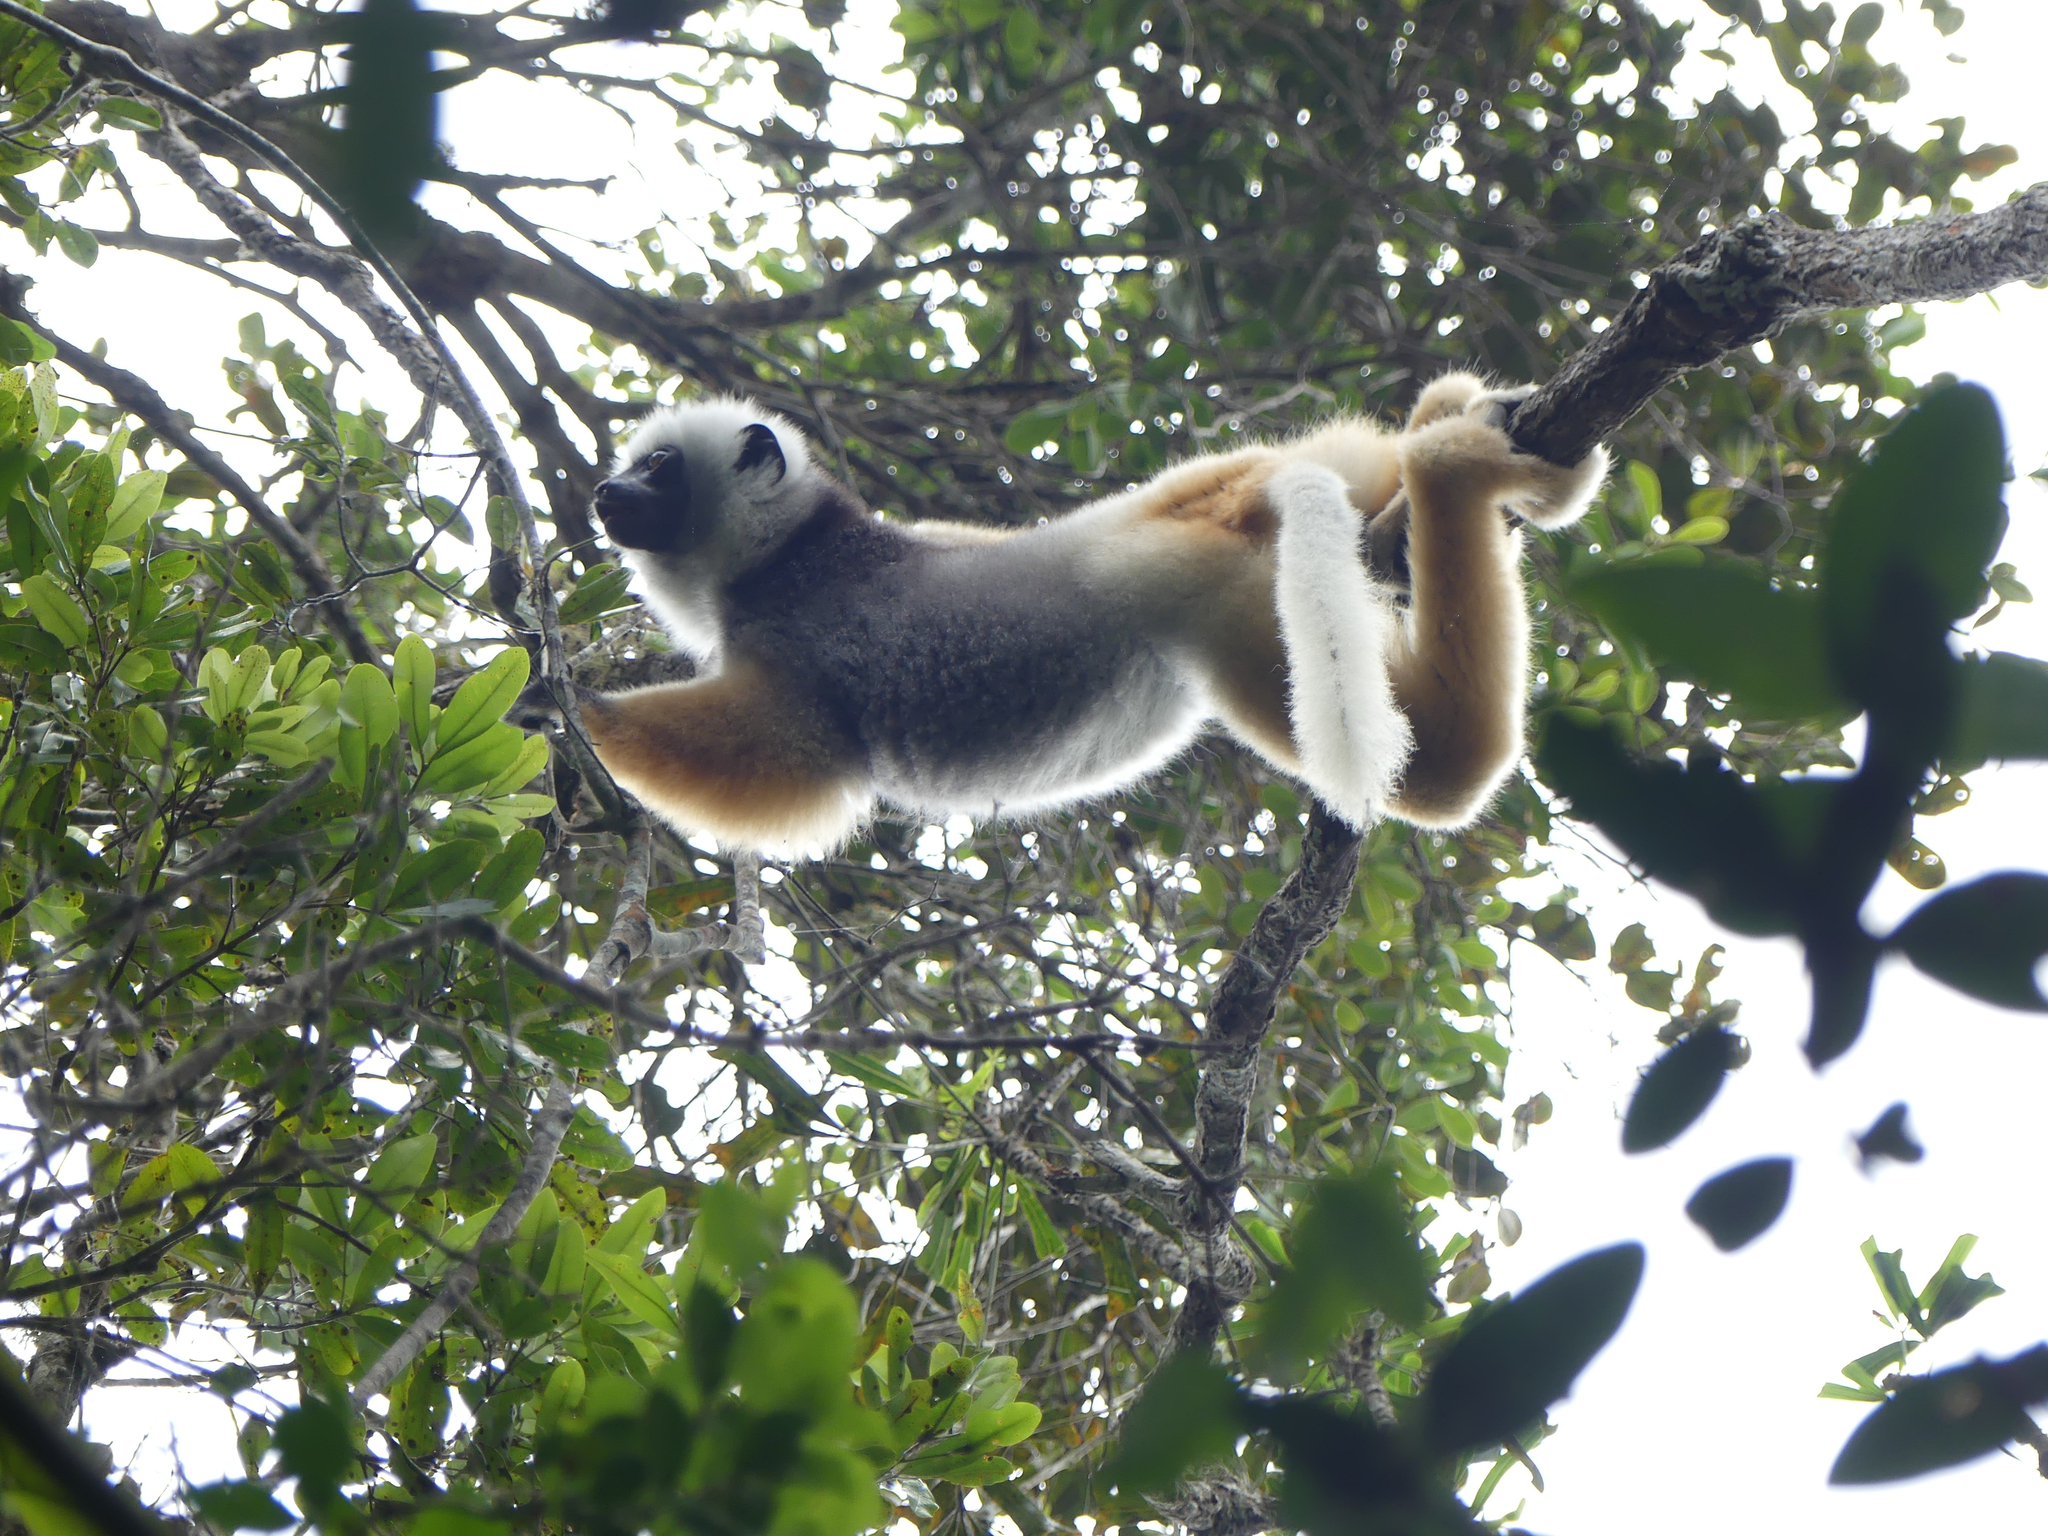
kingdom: Animalia
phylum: Chordata
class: Mammalia
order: Primates
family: Indriidae
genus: Propithecus
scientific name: Propithecus diadema
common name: Diademed sifaka
